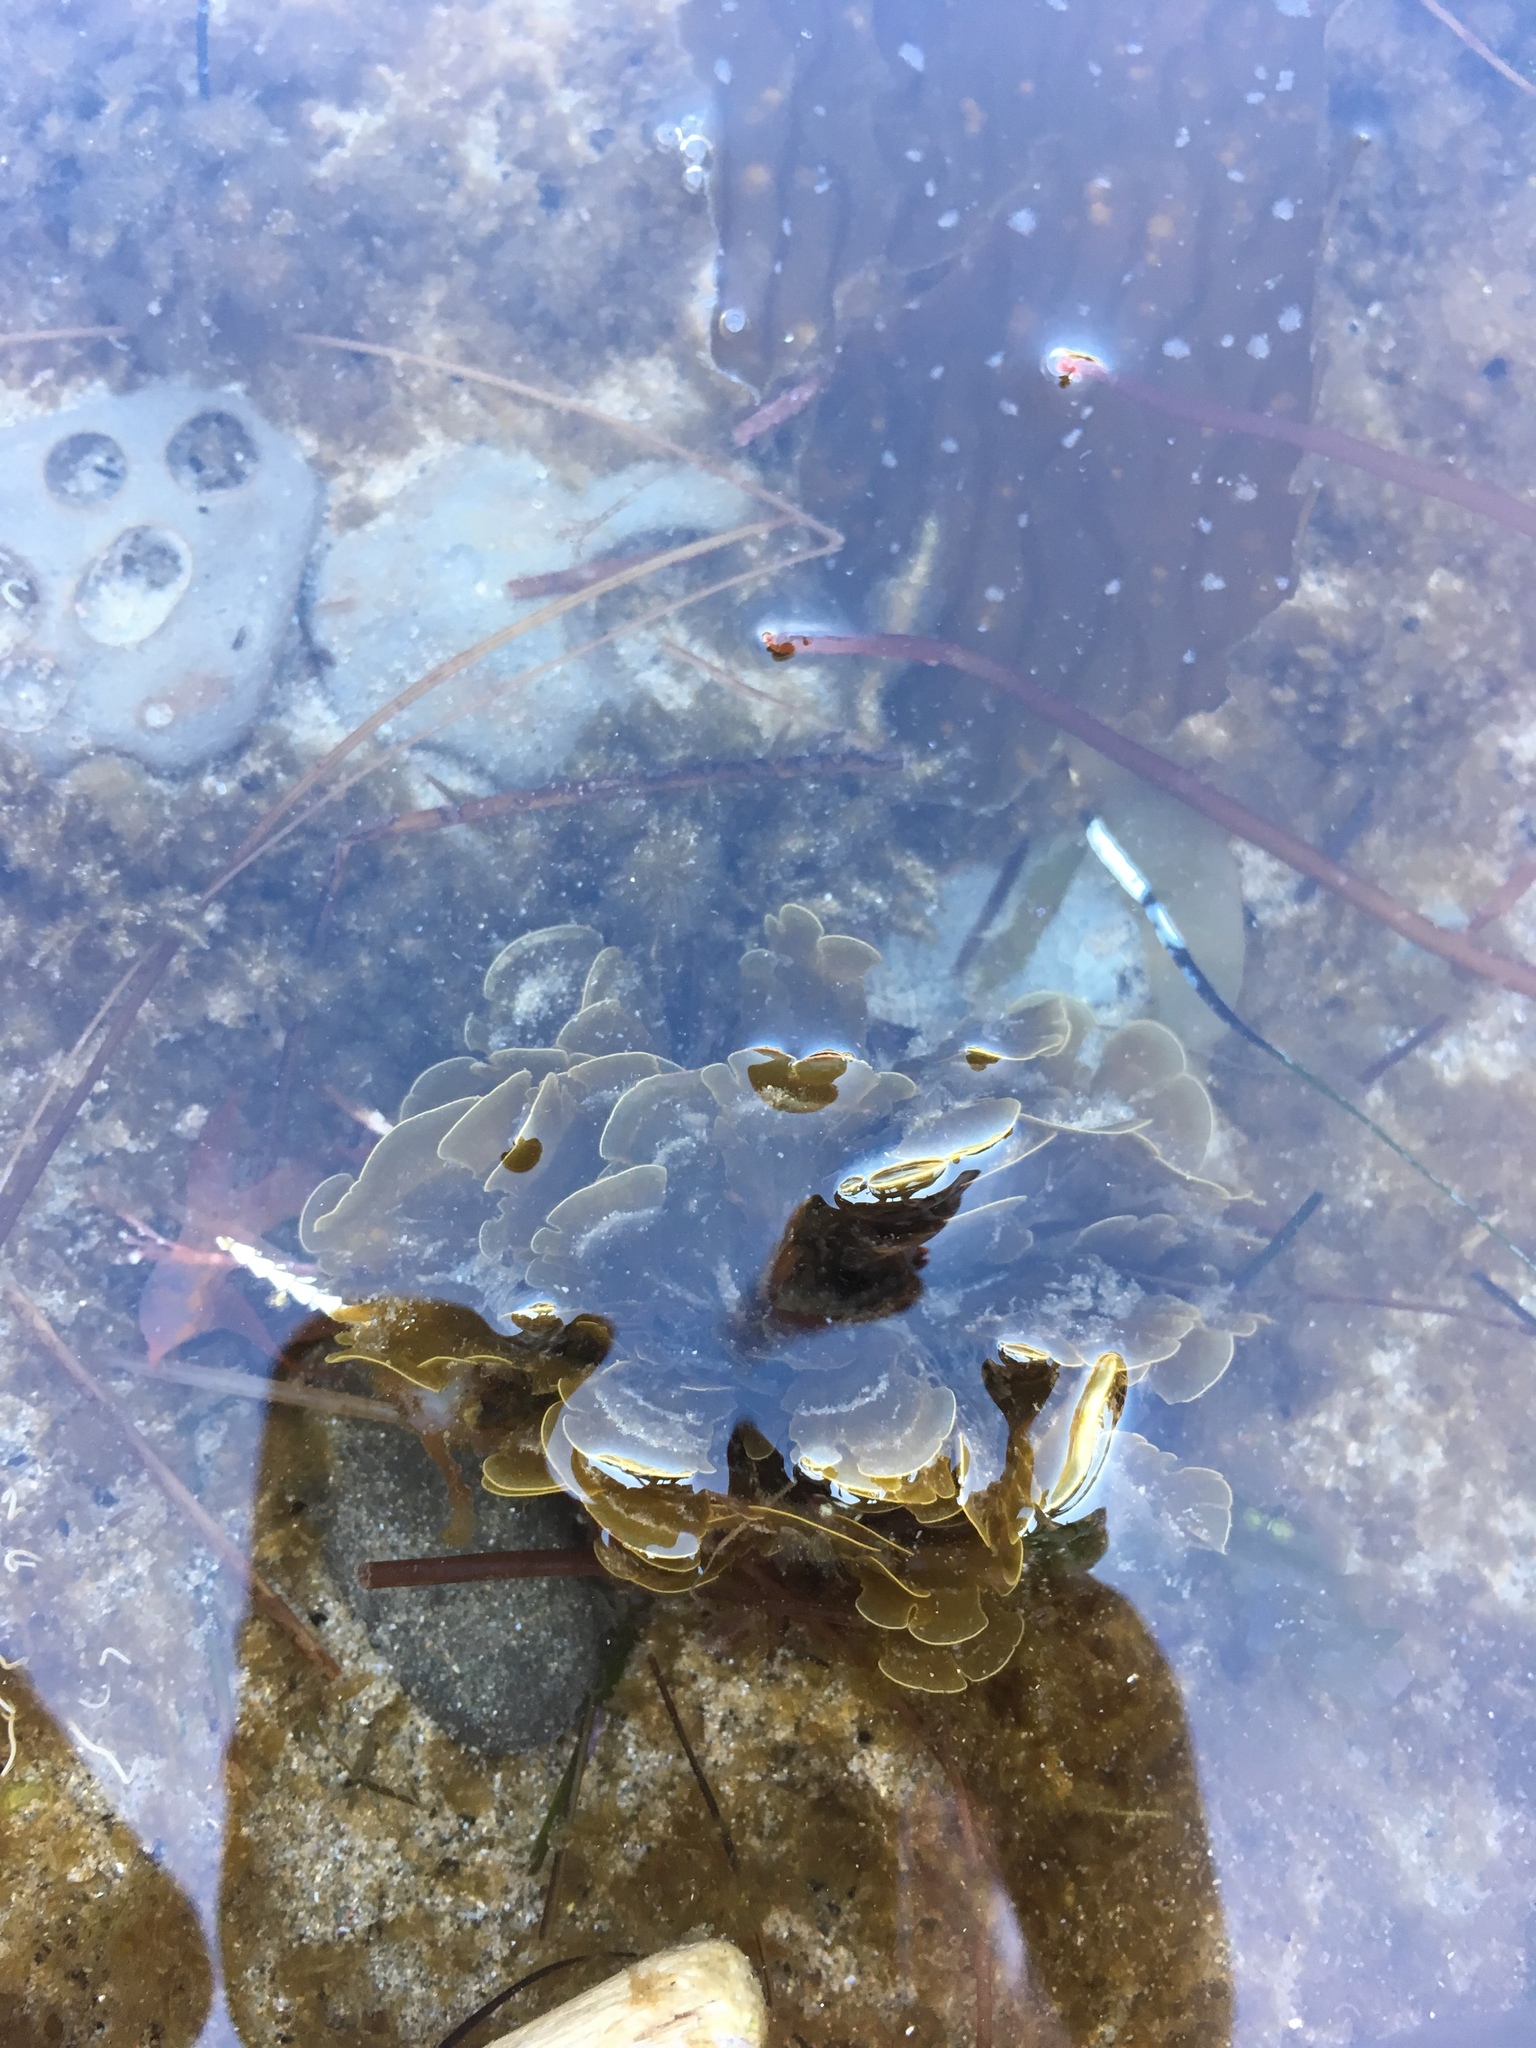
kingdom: Chromista
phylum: Ochrophyta
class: Phaeophyceae
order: Dictyotales
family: Dictyotaceae
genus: Zonaria
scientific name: Zonaria farlowii
